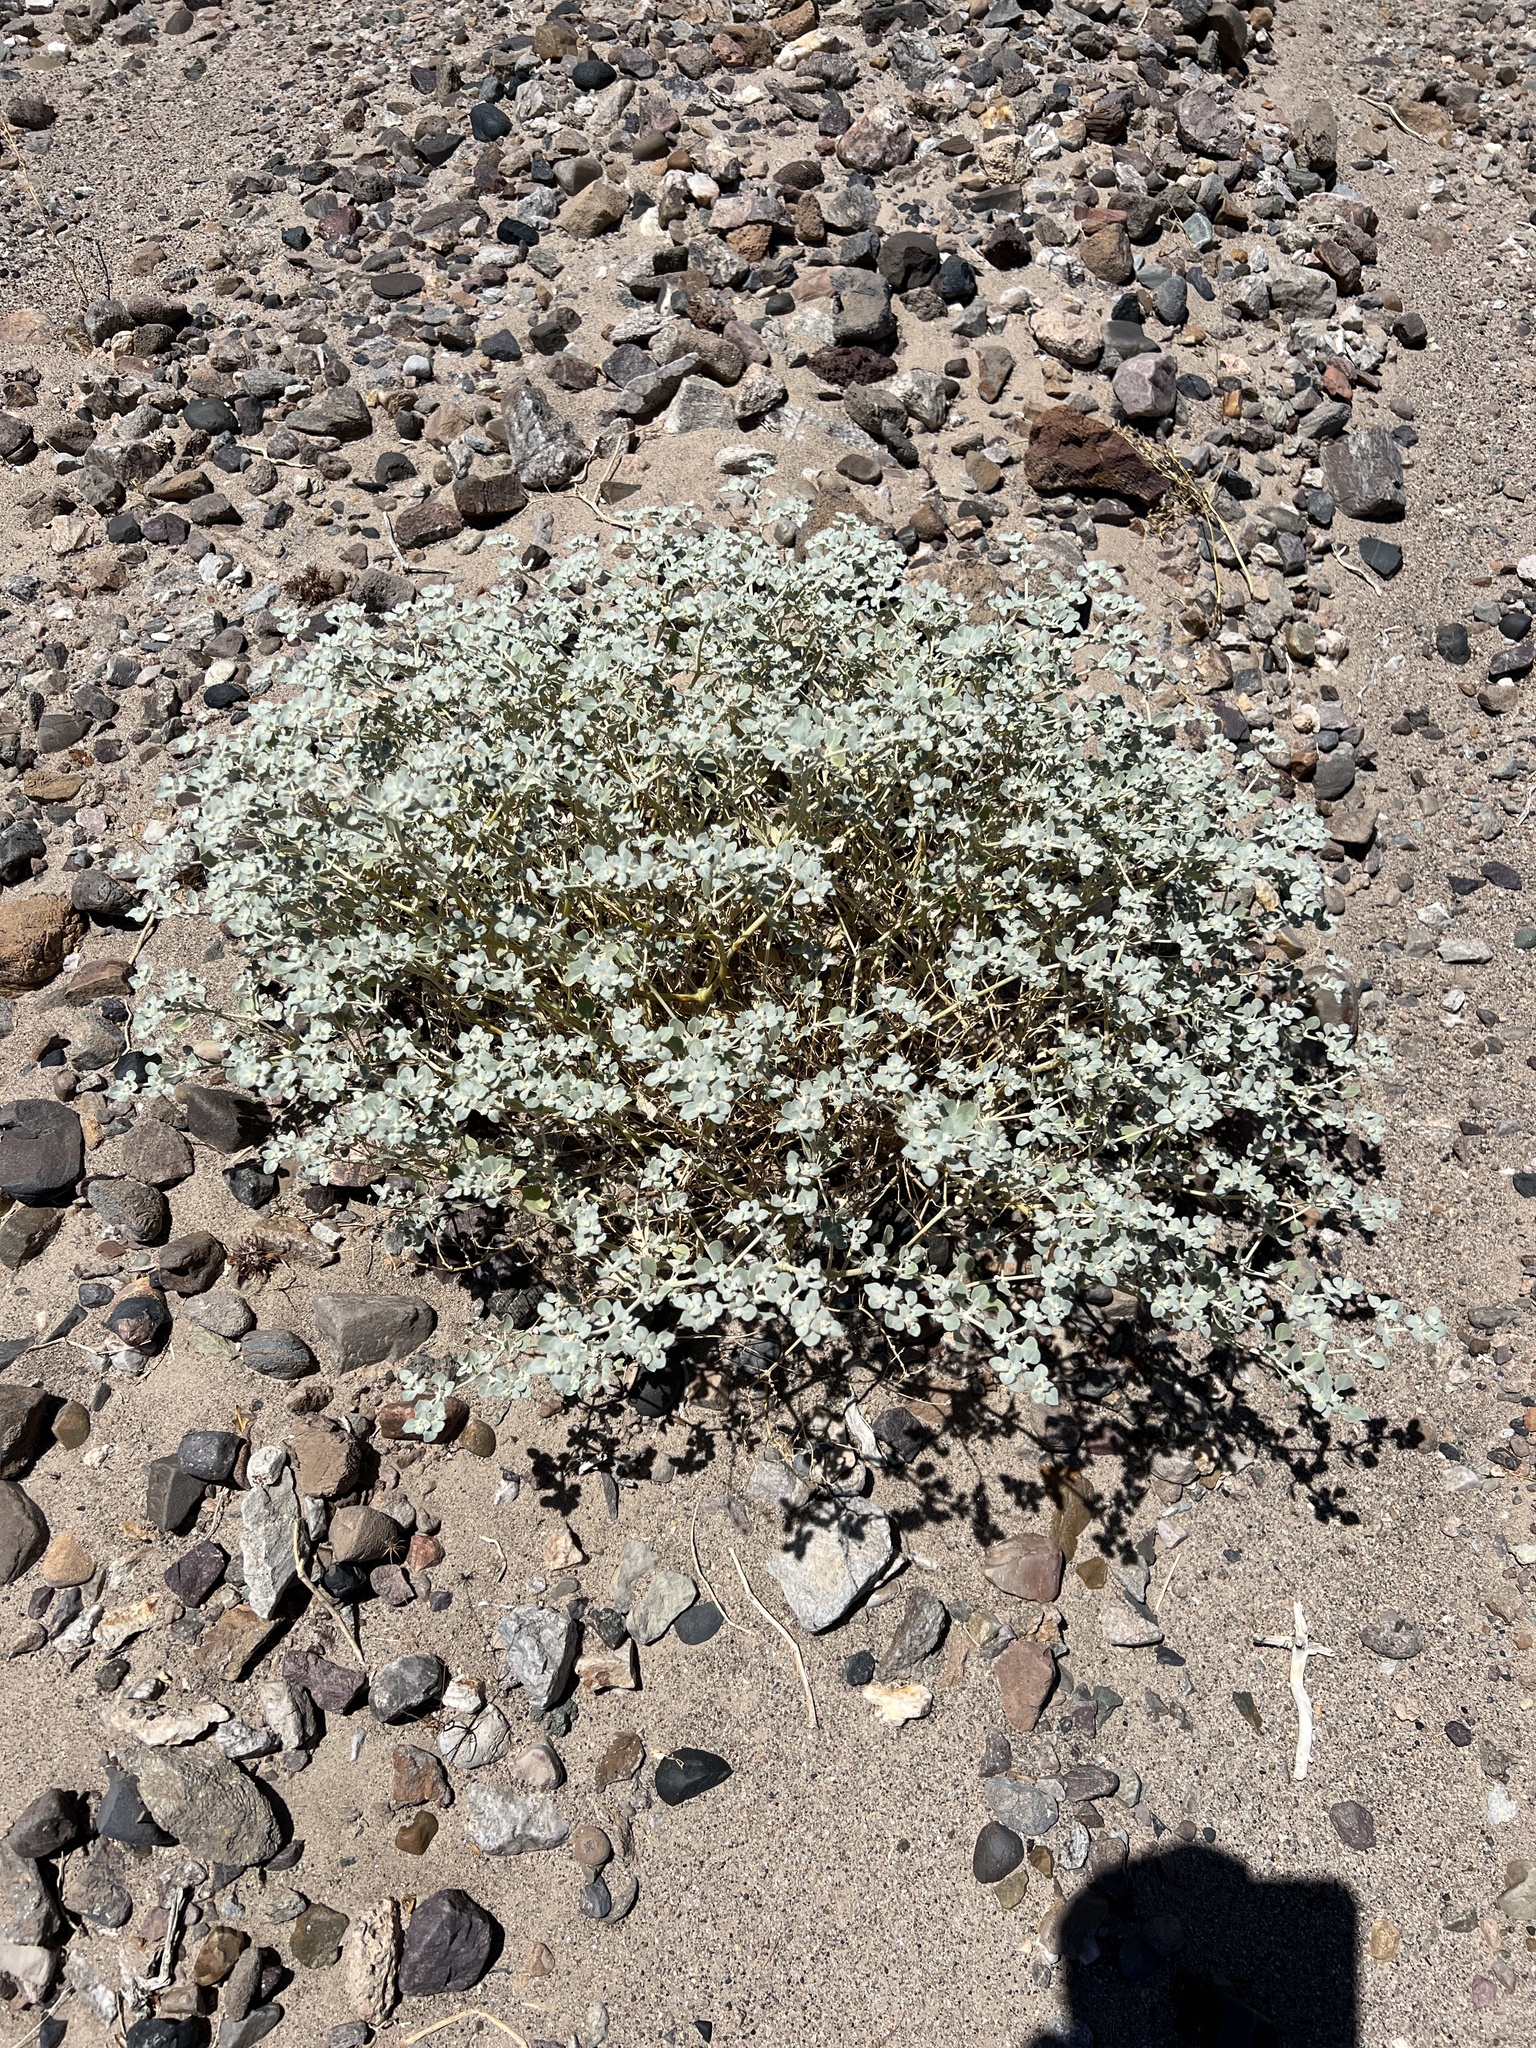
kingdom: Plantae
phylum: Tracheophyta
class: Magnoliopsida
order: Caryophyllales
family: Amaranthaceae
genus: Tidestromia
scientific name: Tidestromia suffruticosa
